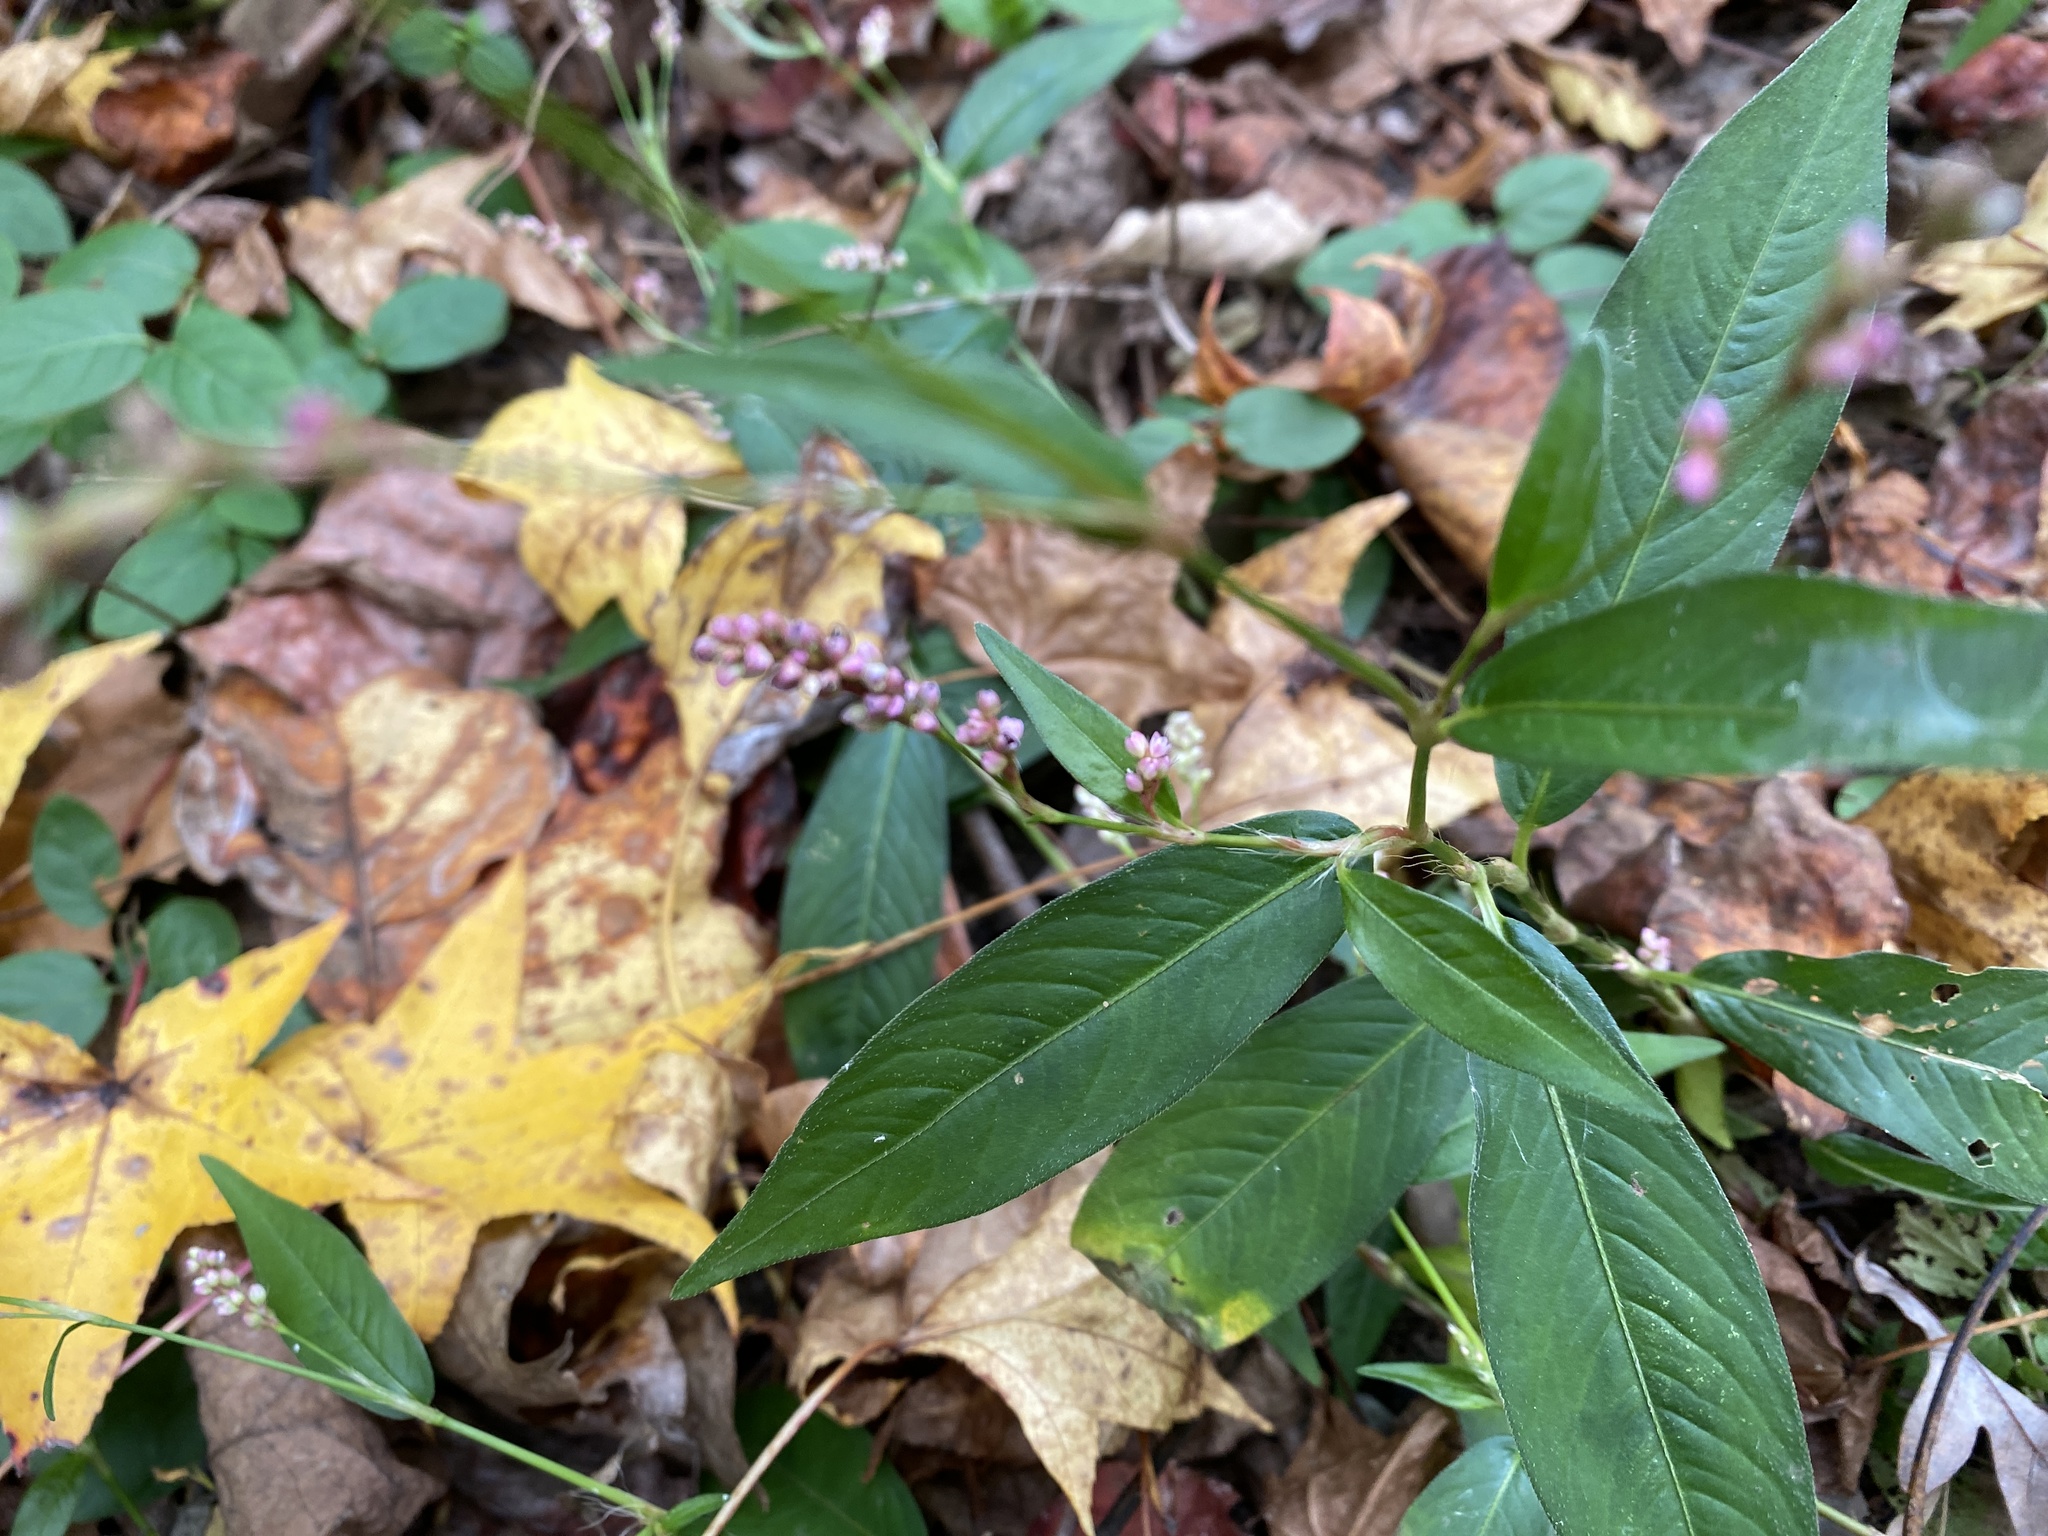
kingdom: Plantae
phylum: Tracheophyta
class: Magnoliopsida
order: Caryophyllales
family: Polygonaceae
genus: Persicaria
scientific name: Persicaria longiseta
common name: Bristly lady's-thumb
